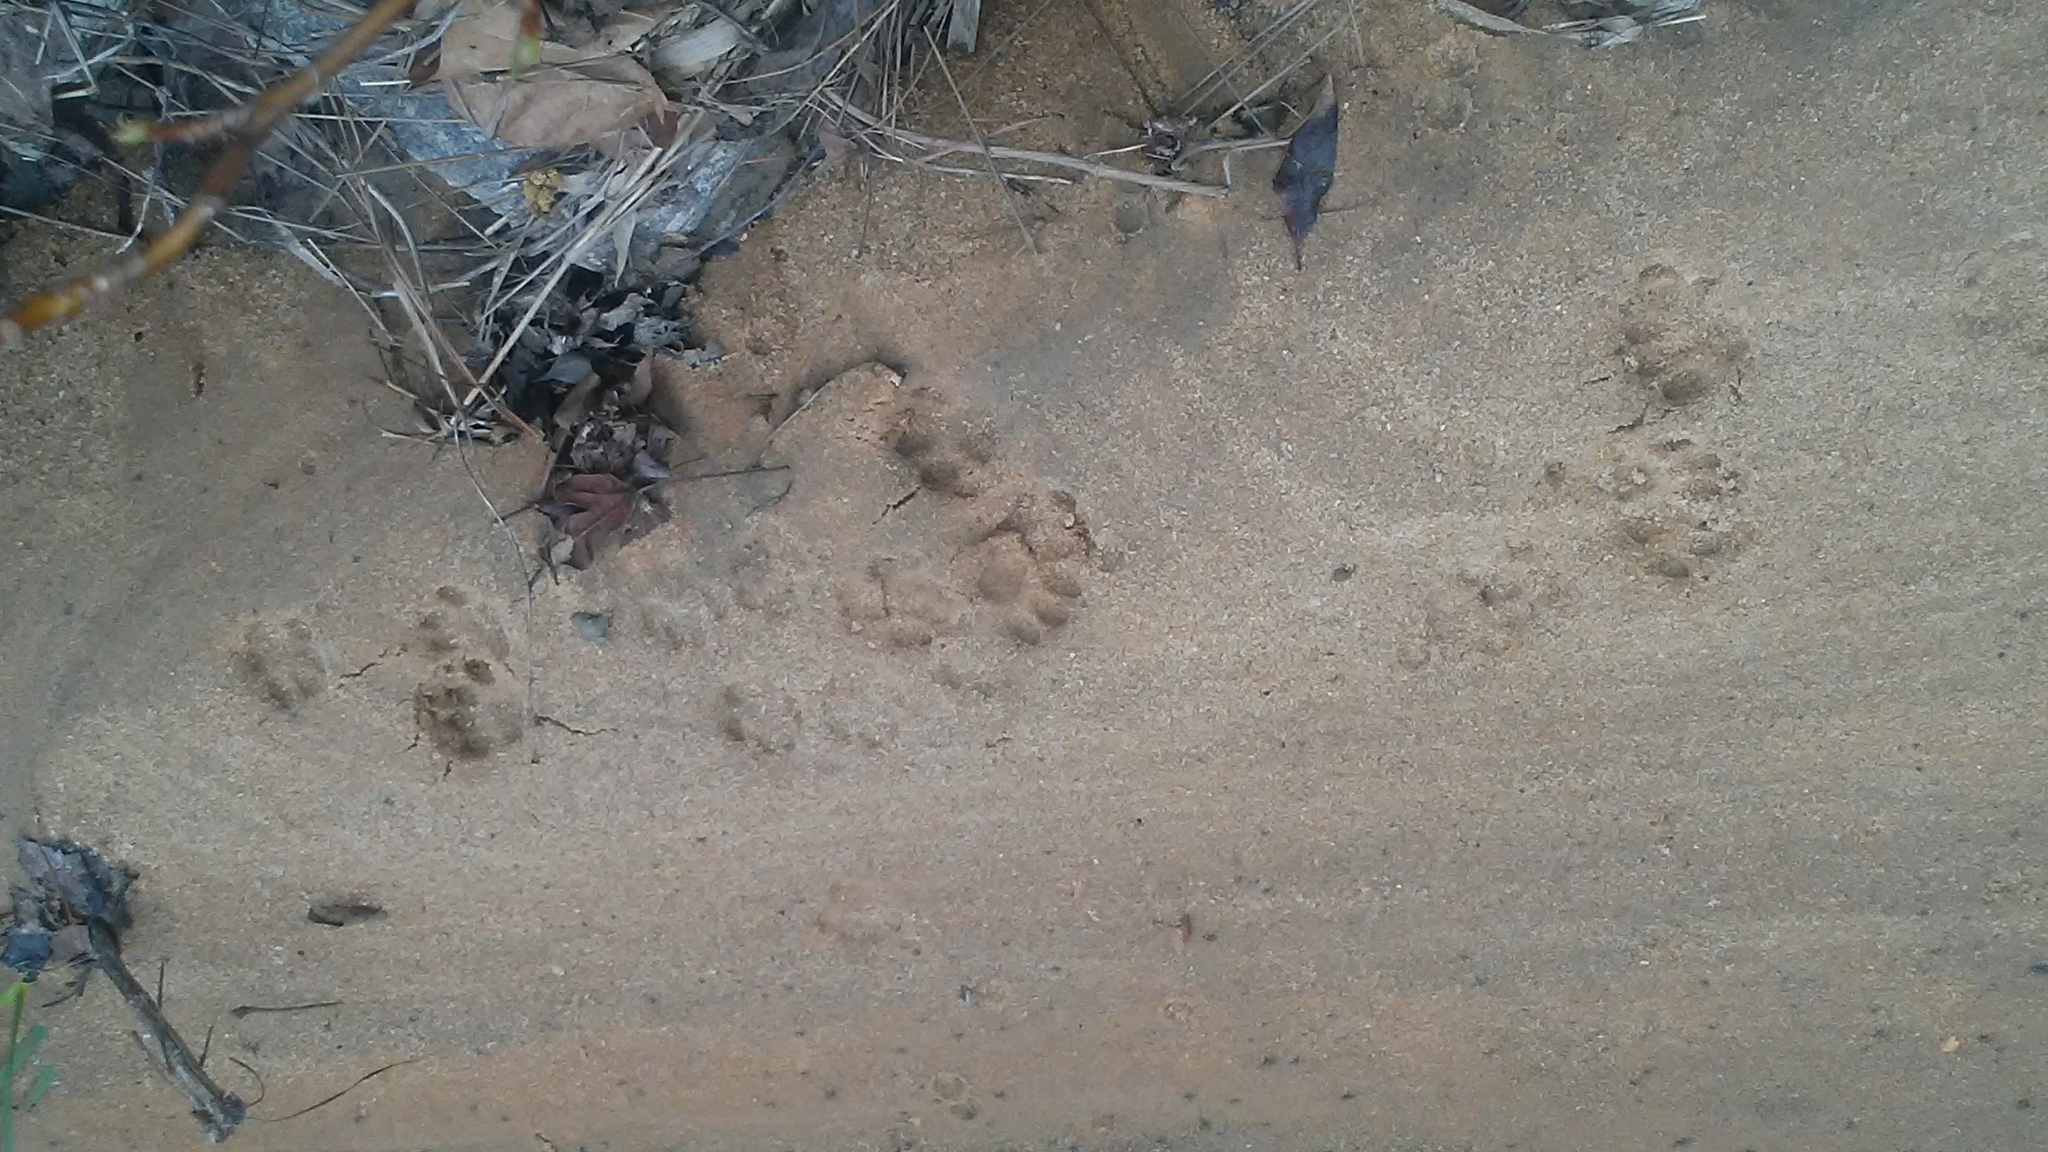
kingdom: Animalia
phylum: Chordata
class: Mammalia
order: Carnivora
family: Felidae
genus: Felis
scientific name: Felis catus
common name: Domestic cat
